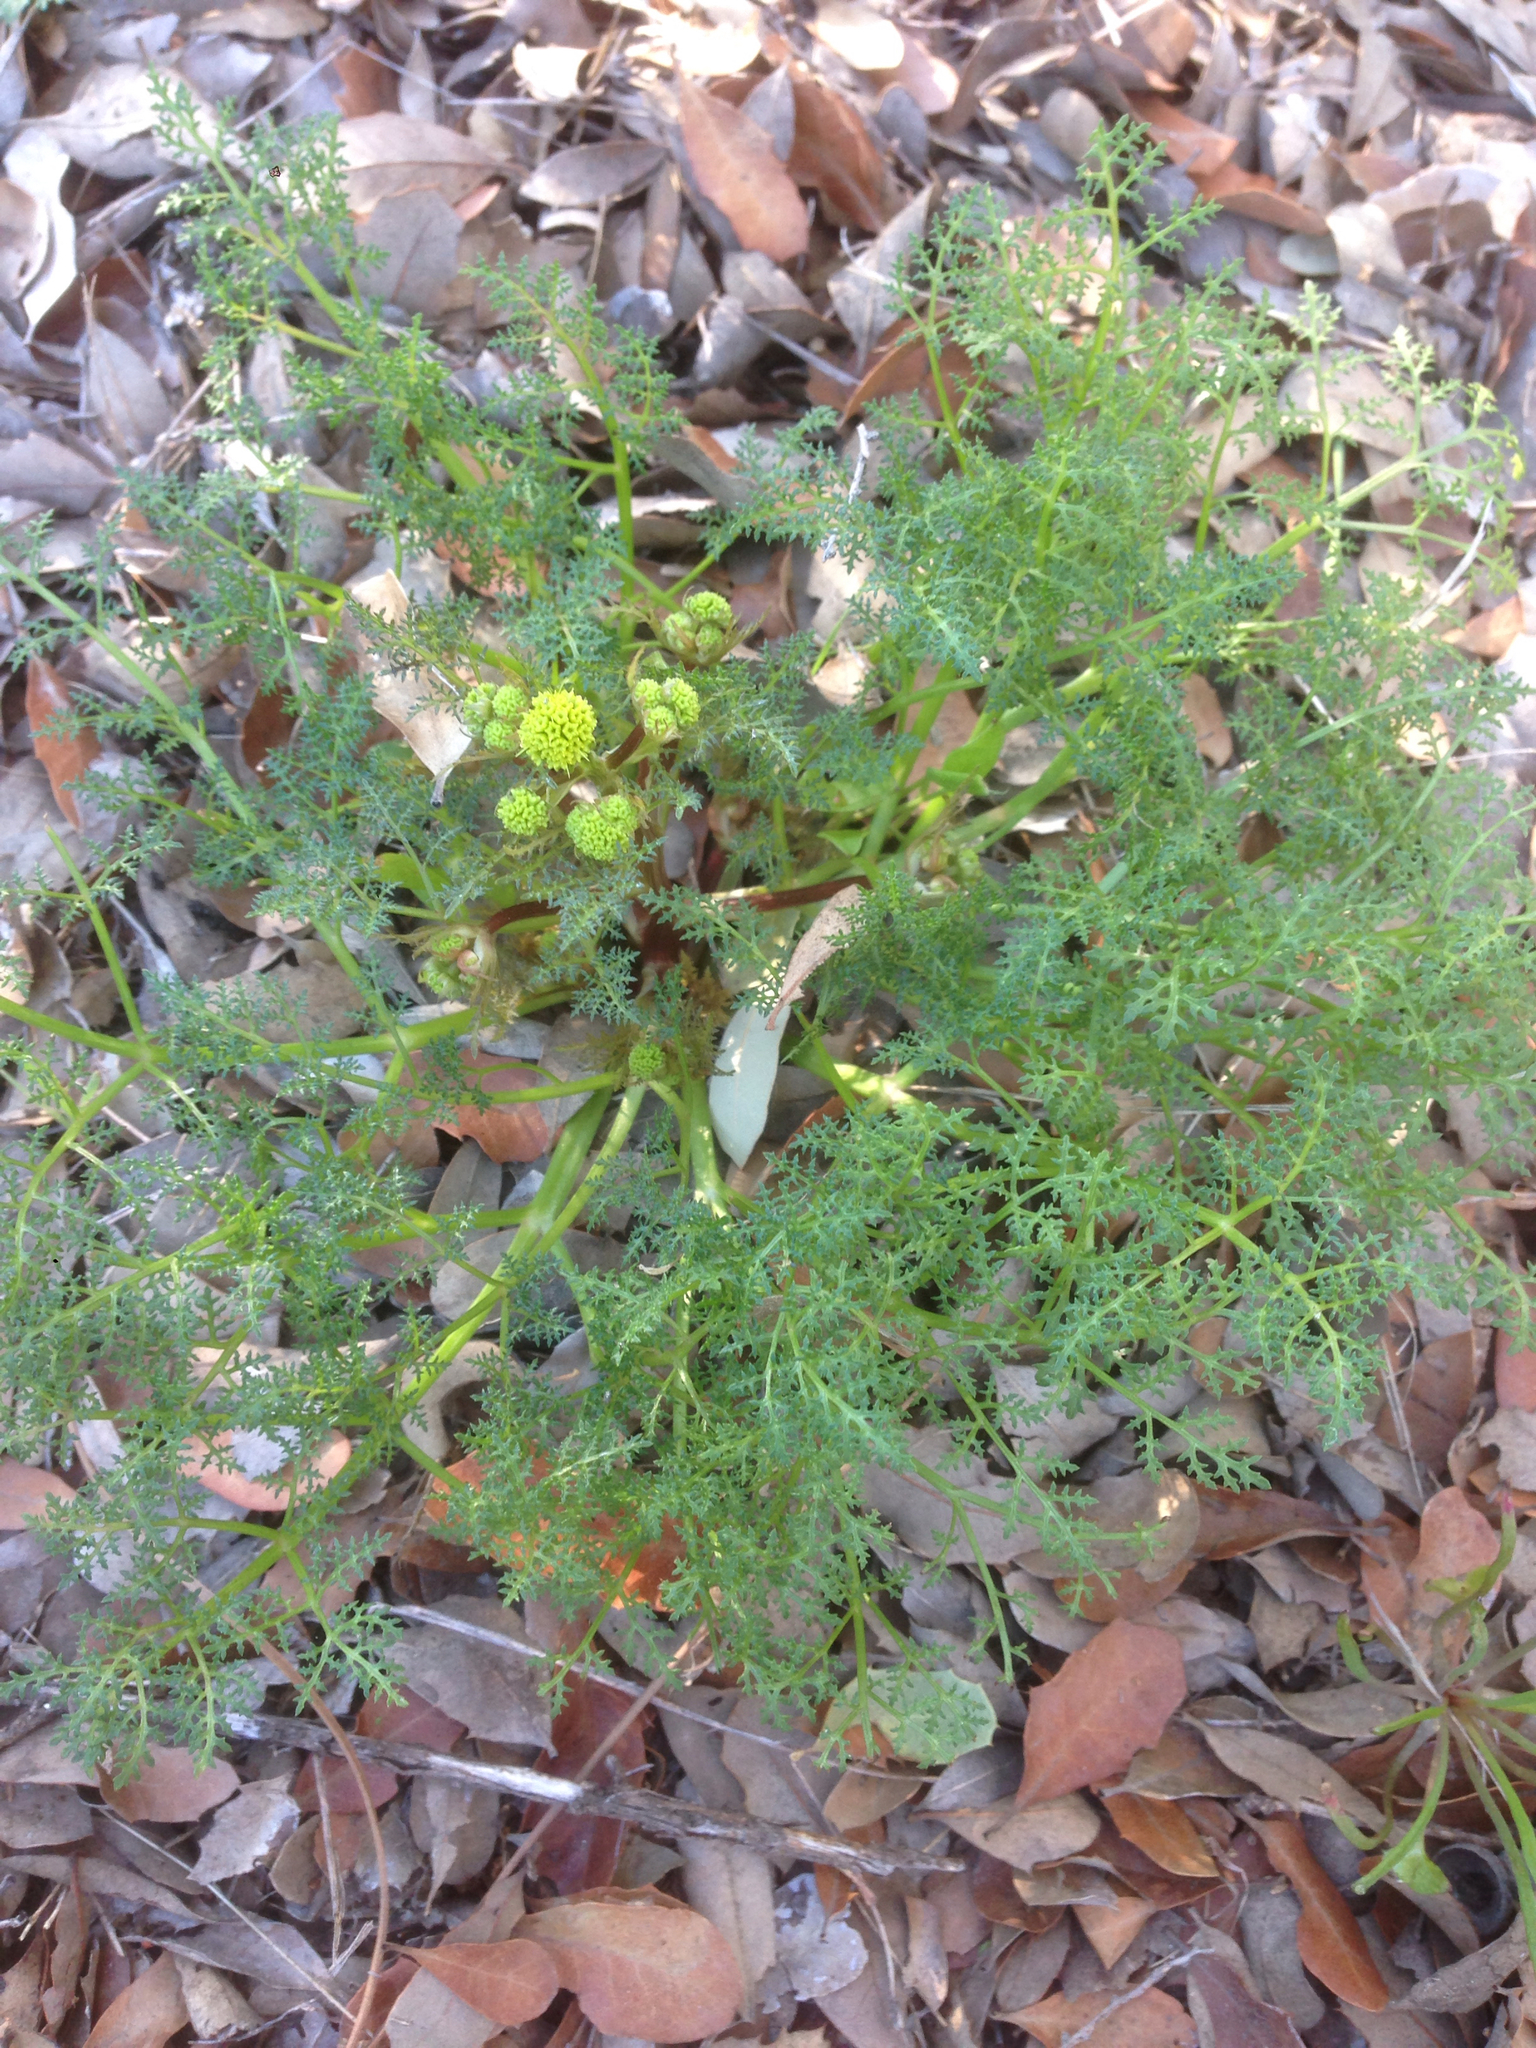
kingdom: Plantae
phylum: Tracheophyta
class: Magnoliopsida
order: Apiales
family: Apiaceae
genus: Sanicula
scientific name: Sanicula tuberosa
